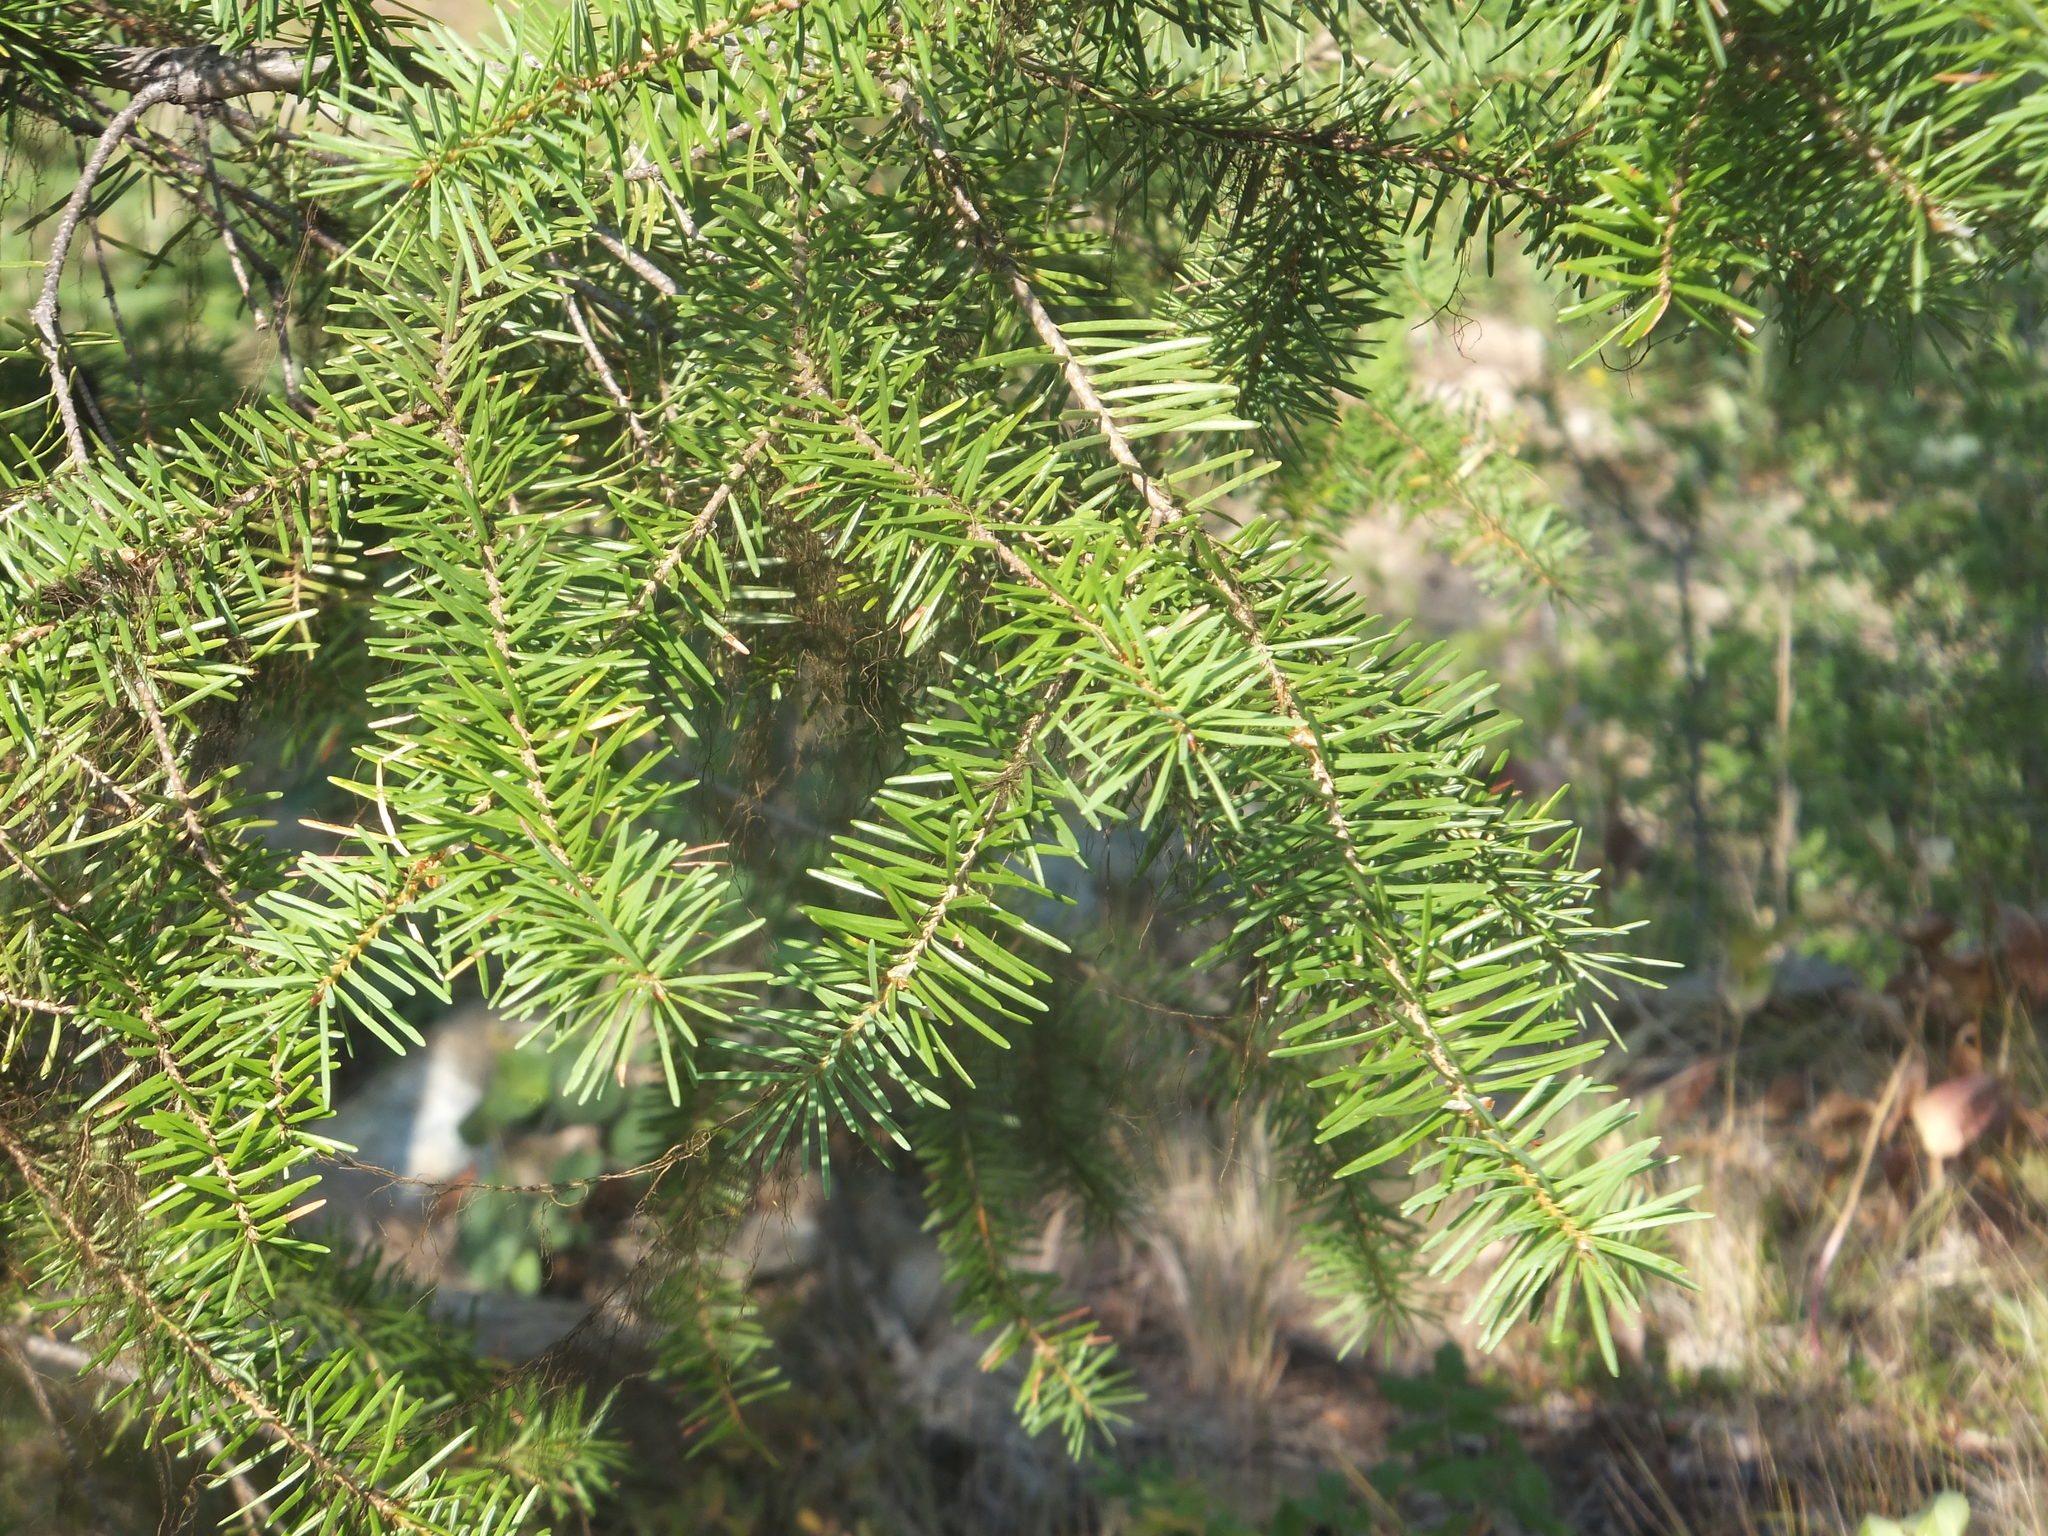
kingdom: Plantae
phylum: Tracheophyta
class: Pinopsida
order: Pinales
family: Pinaceae
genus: Pseudotsuga
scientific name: Pseudotsuga menziesii
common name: Douglas fir
